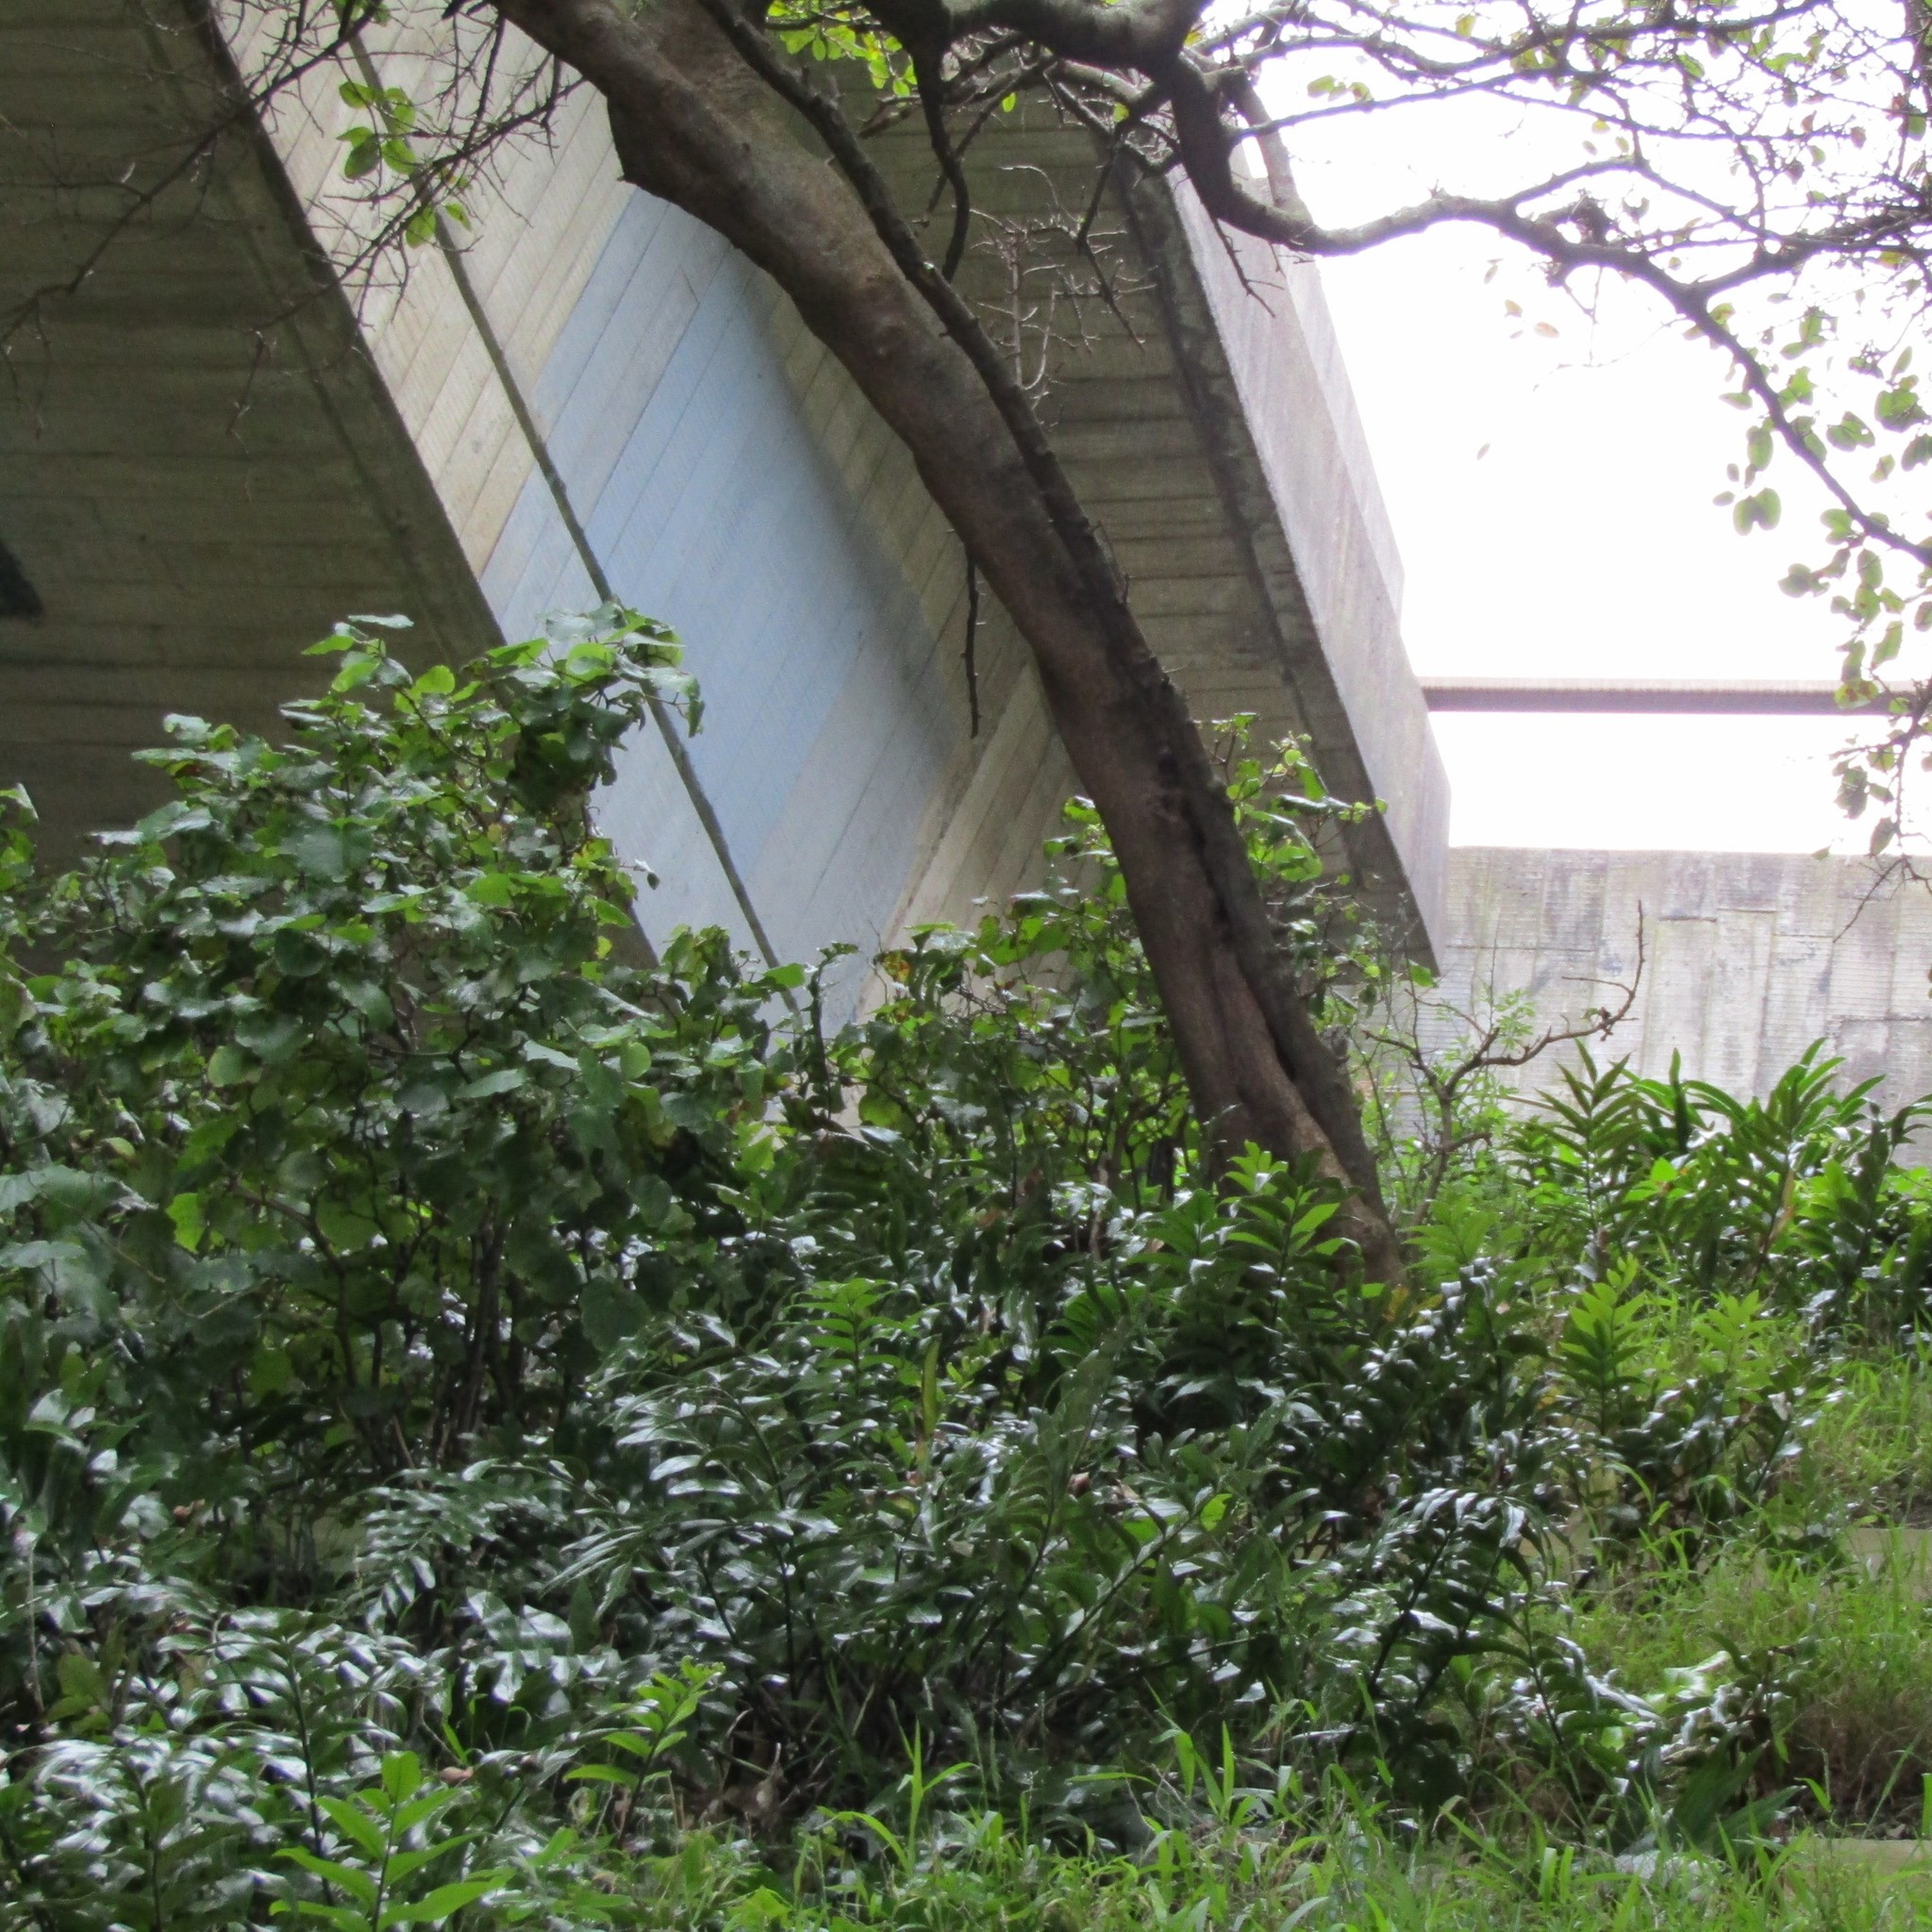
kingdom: Plantae
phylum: Tracheophyta
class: Polypodiopsida
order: Polypodiales
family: Aspleniaceae
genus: Asplenium
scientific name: Asplenium oblongifolium
